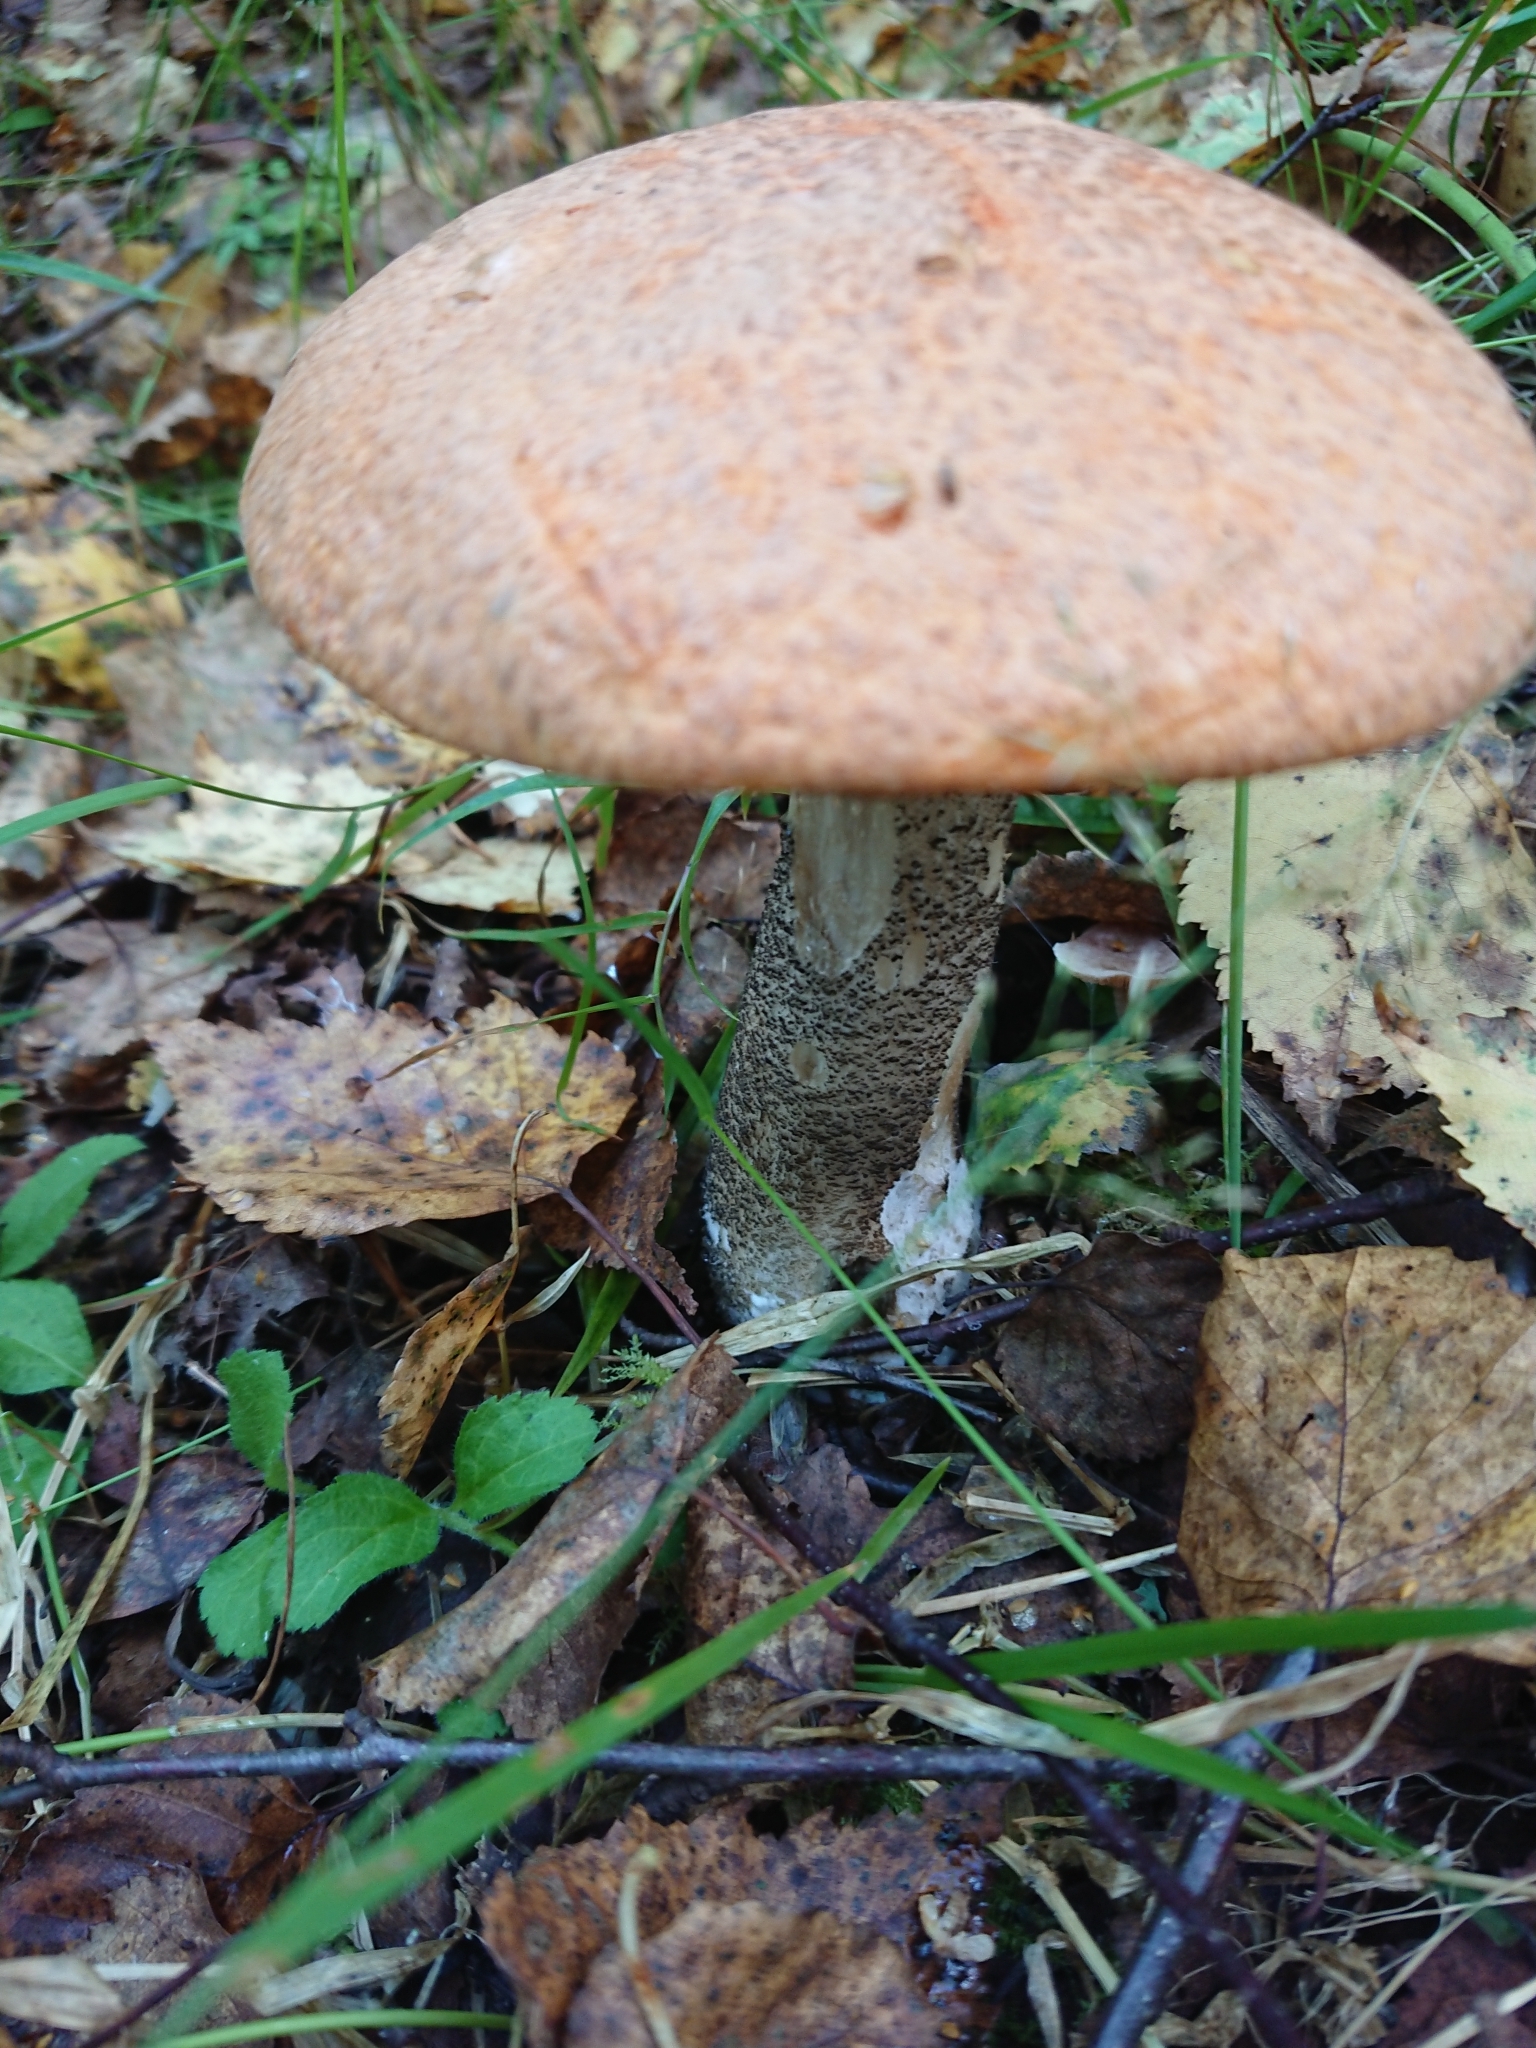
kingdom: Fungi
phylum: Basidiomycota
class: Agaricomycetes
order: Boletales
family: Boletaceae
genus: Leccinum
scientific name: Leccinum versipelle
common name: Orange birch bolete
